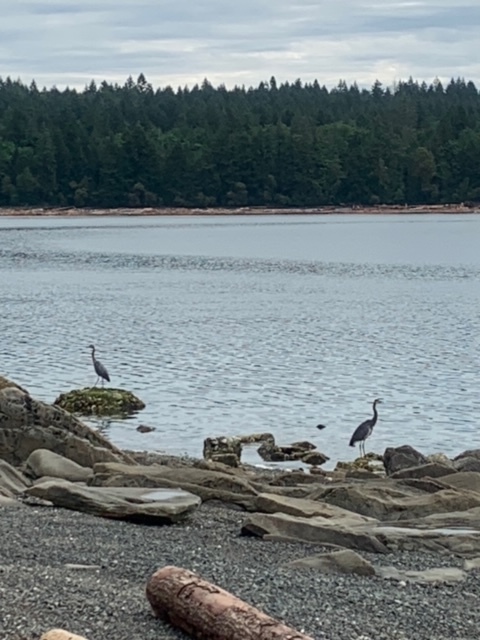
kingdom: Animalia
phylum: Chordata
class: Aves
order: Pelecaniformes
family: Ardeidae
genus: Ardea
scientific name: Ardea herodias
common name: Great blue heron
